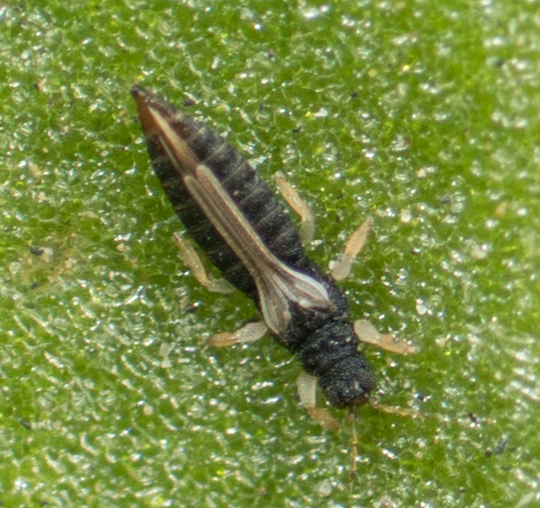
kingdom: Animalia
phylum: Arthropoda
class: Insecta
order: Thysanoptera
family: Thripidae
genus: Heliothrips
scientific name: Heliothrips haemorrhoidalis
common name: Thrips
